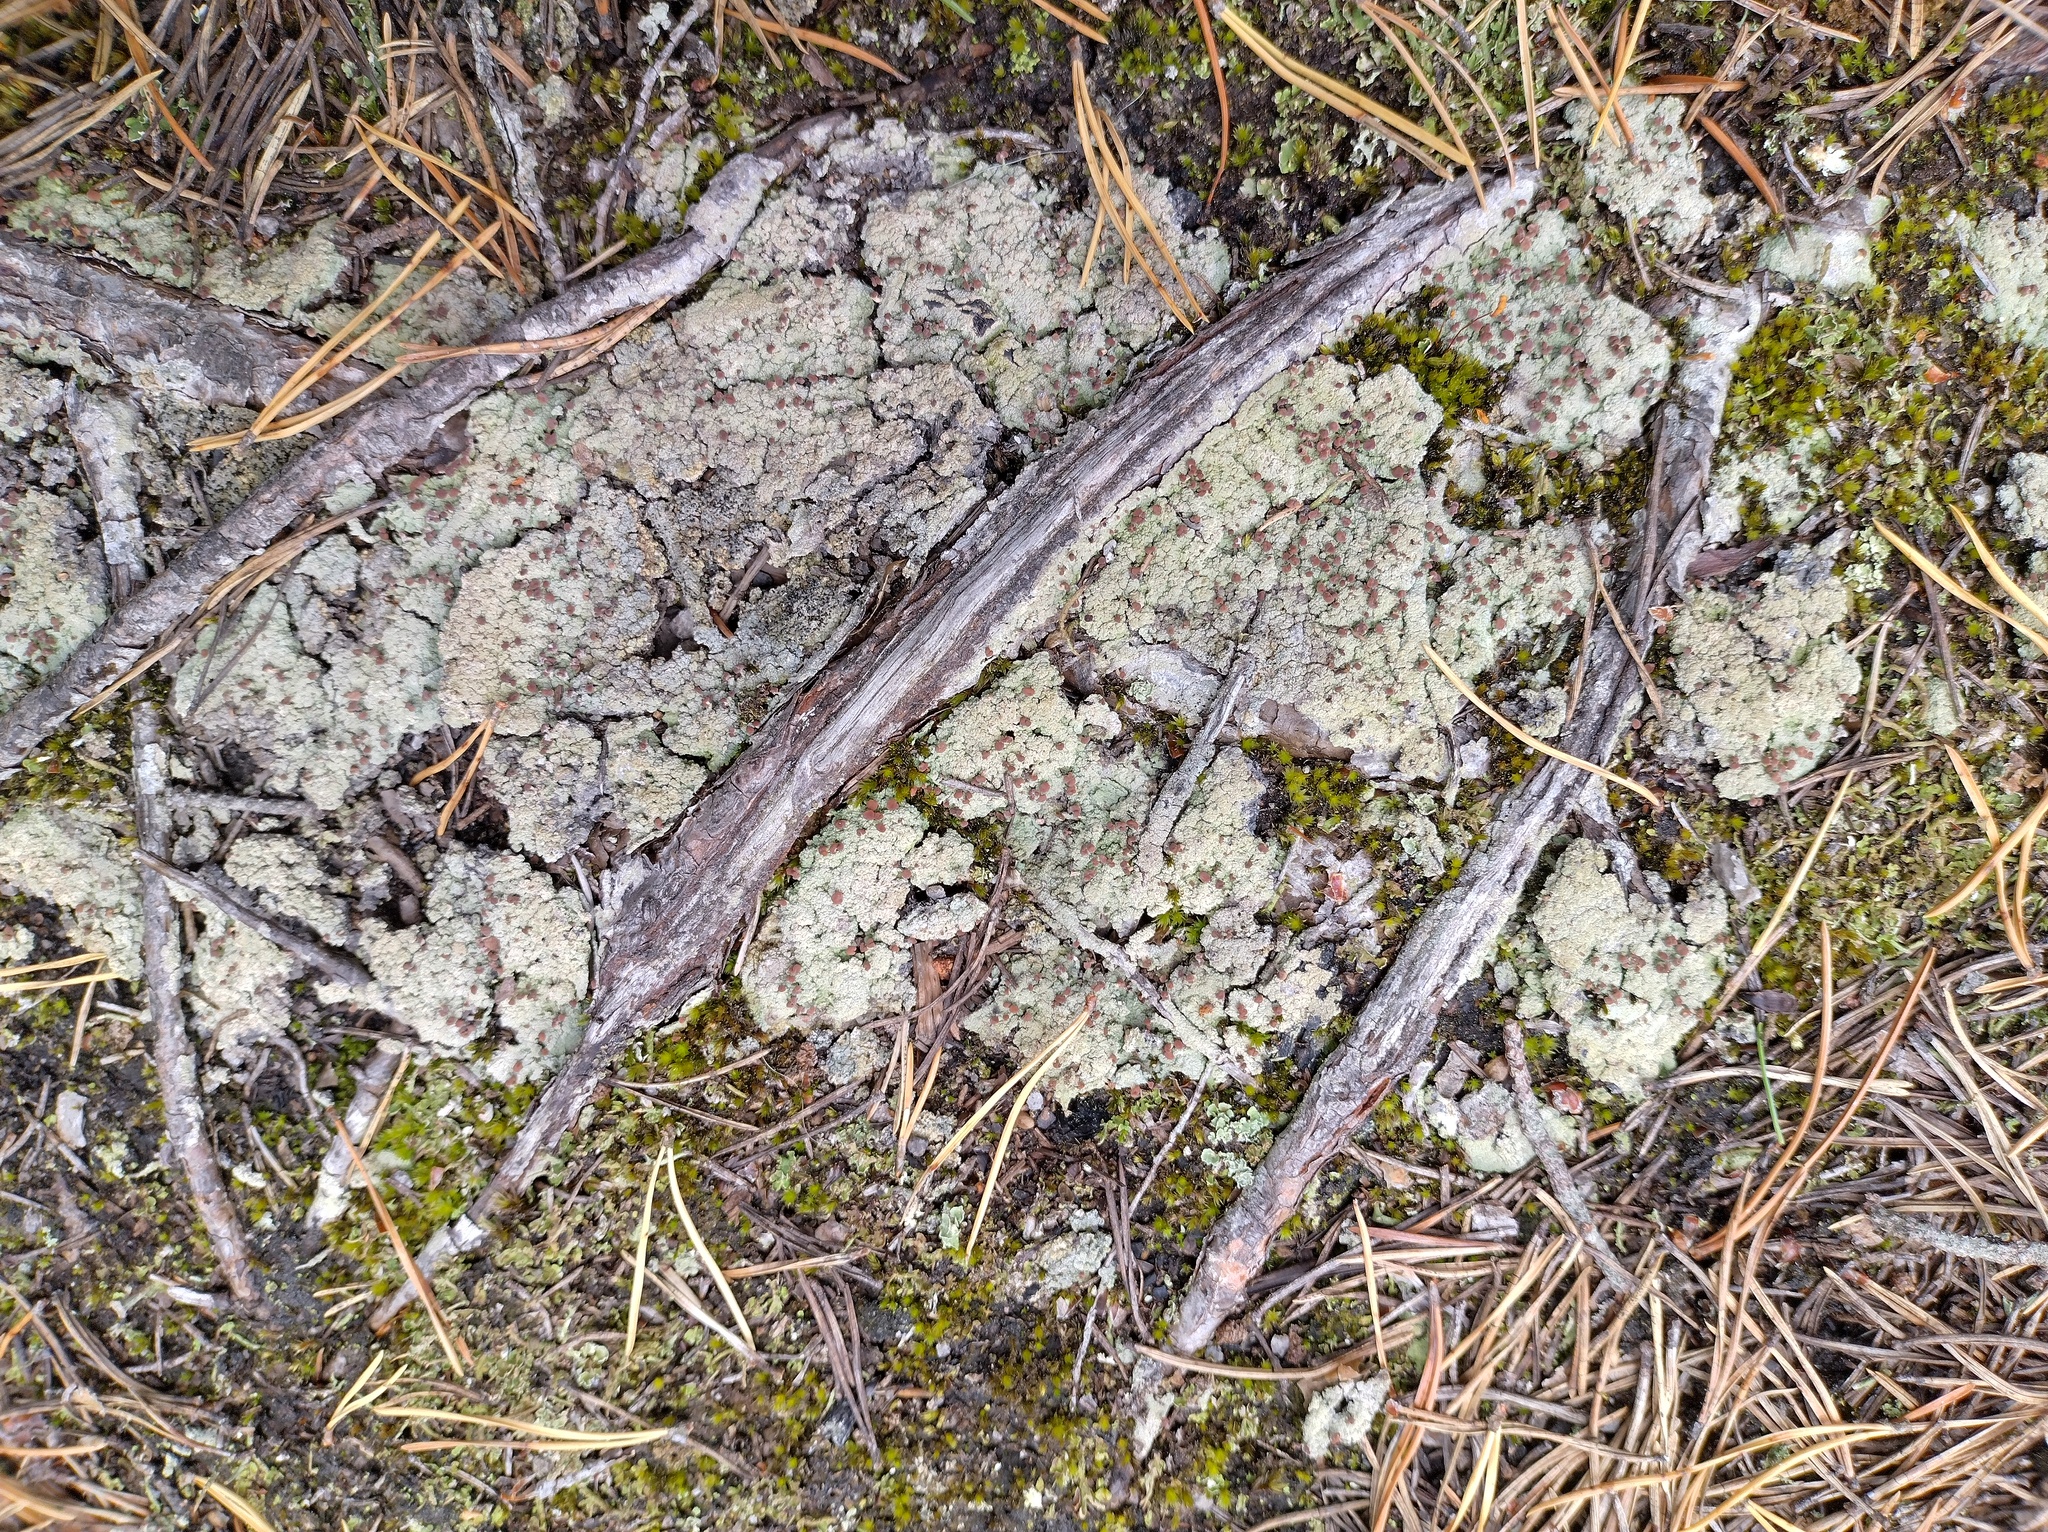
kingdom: Fungi
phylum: Ascomycota
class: Lecanoromycetes
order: Baeomycetales
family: Baeomycetaceae
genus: Baeomyces
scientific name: Baeomyces rufus
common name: Brown beret lichen
